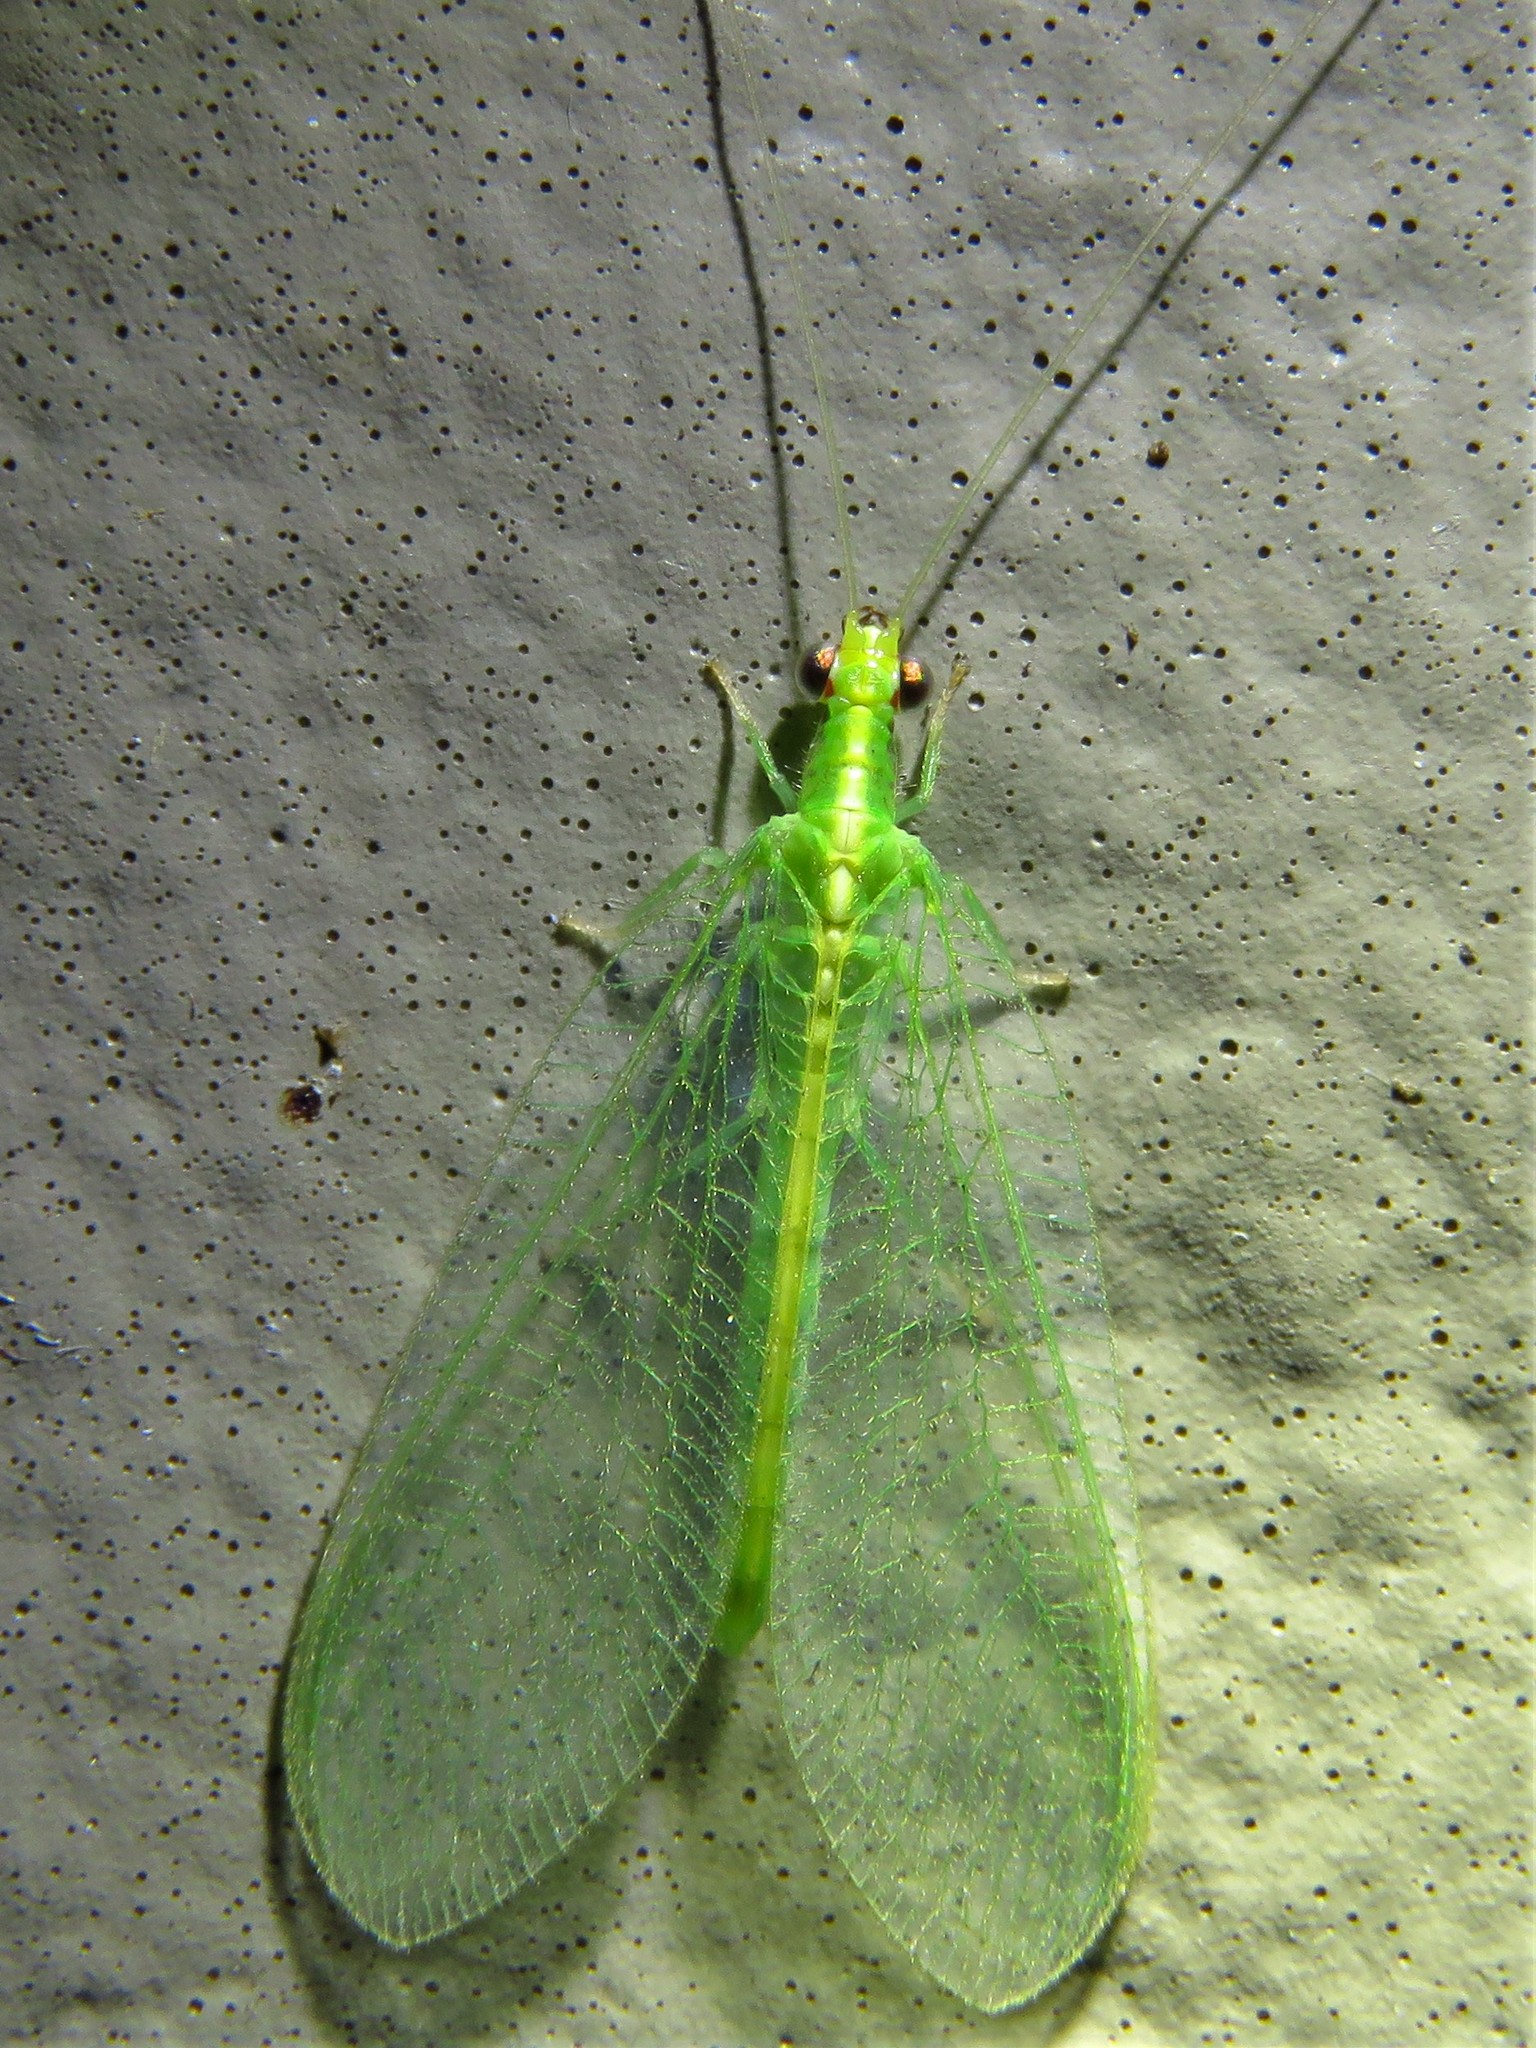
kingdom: Animalia
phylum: Arthropoda
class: Insecta
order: Neuroptera
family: Chrysopidae
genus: Chrysoperla
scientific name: Chrysoperla rufilabris
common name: Red-lipped green lacewing
